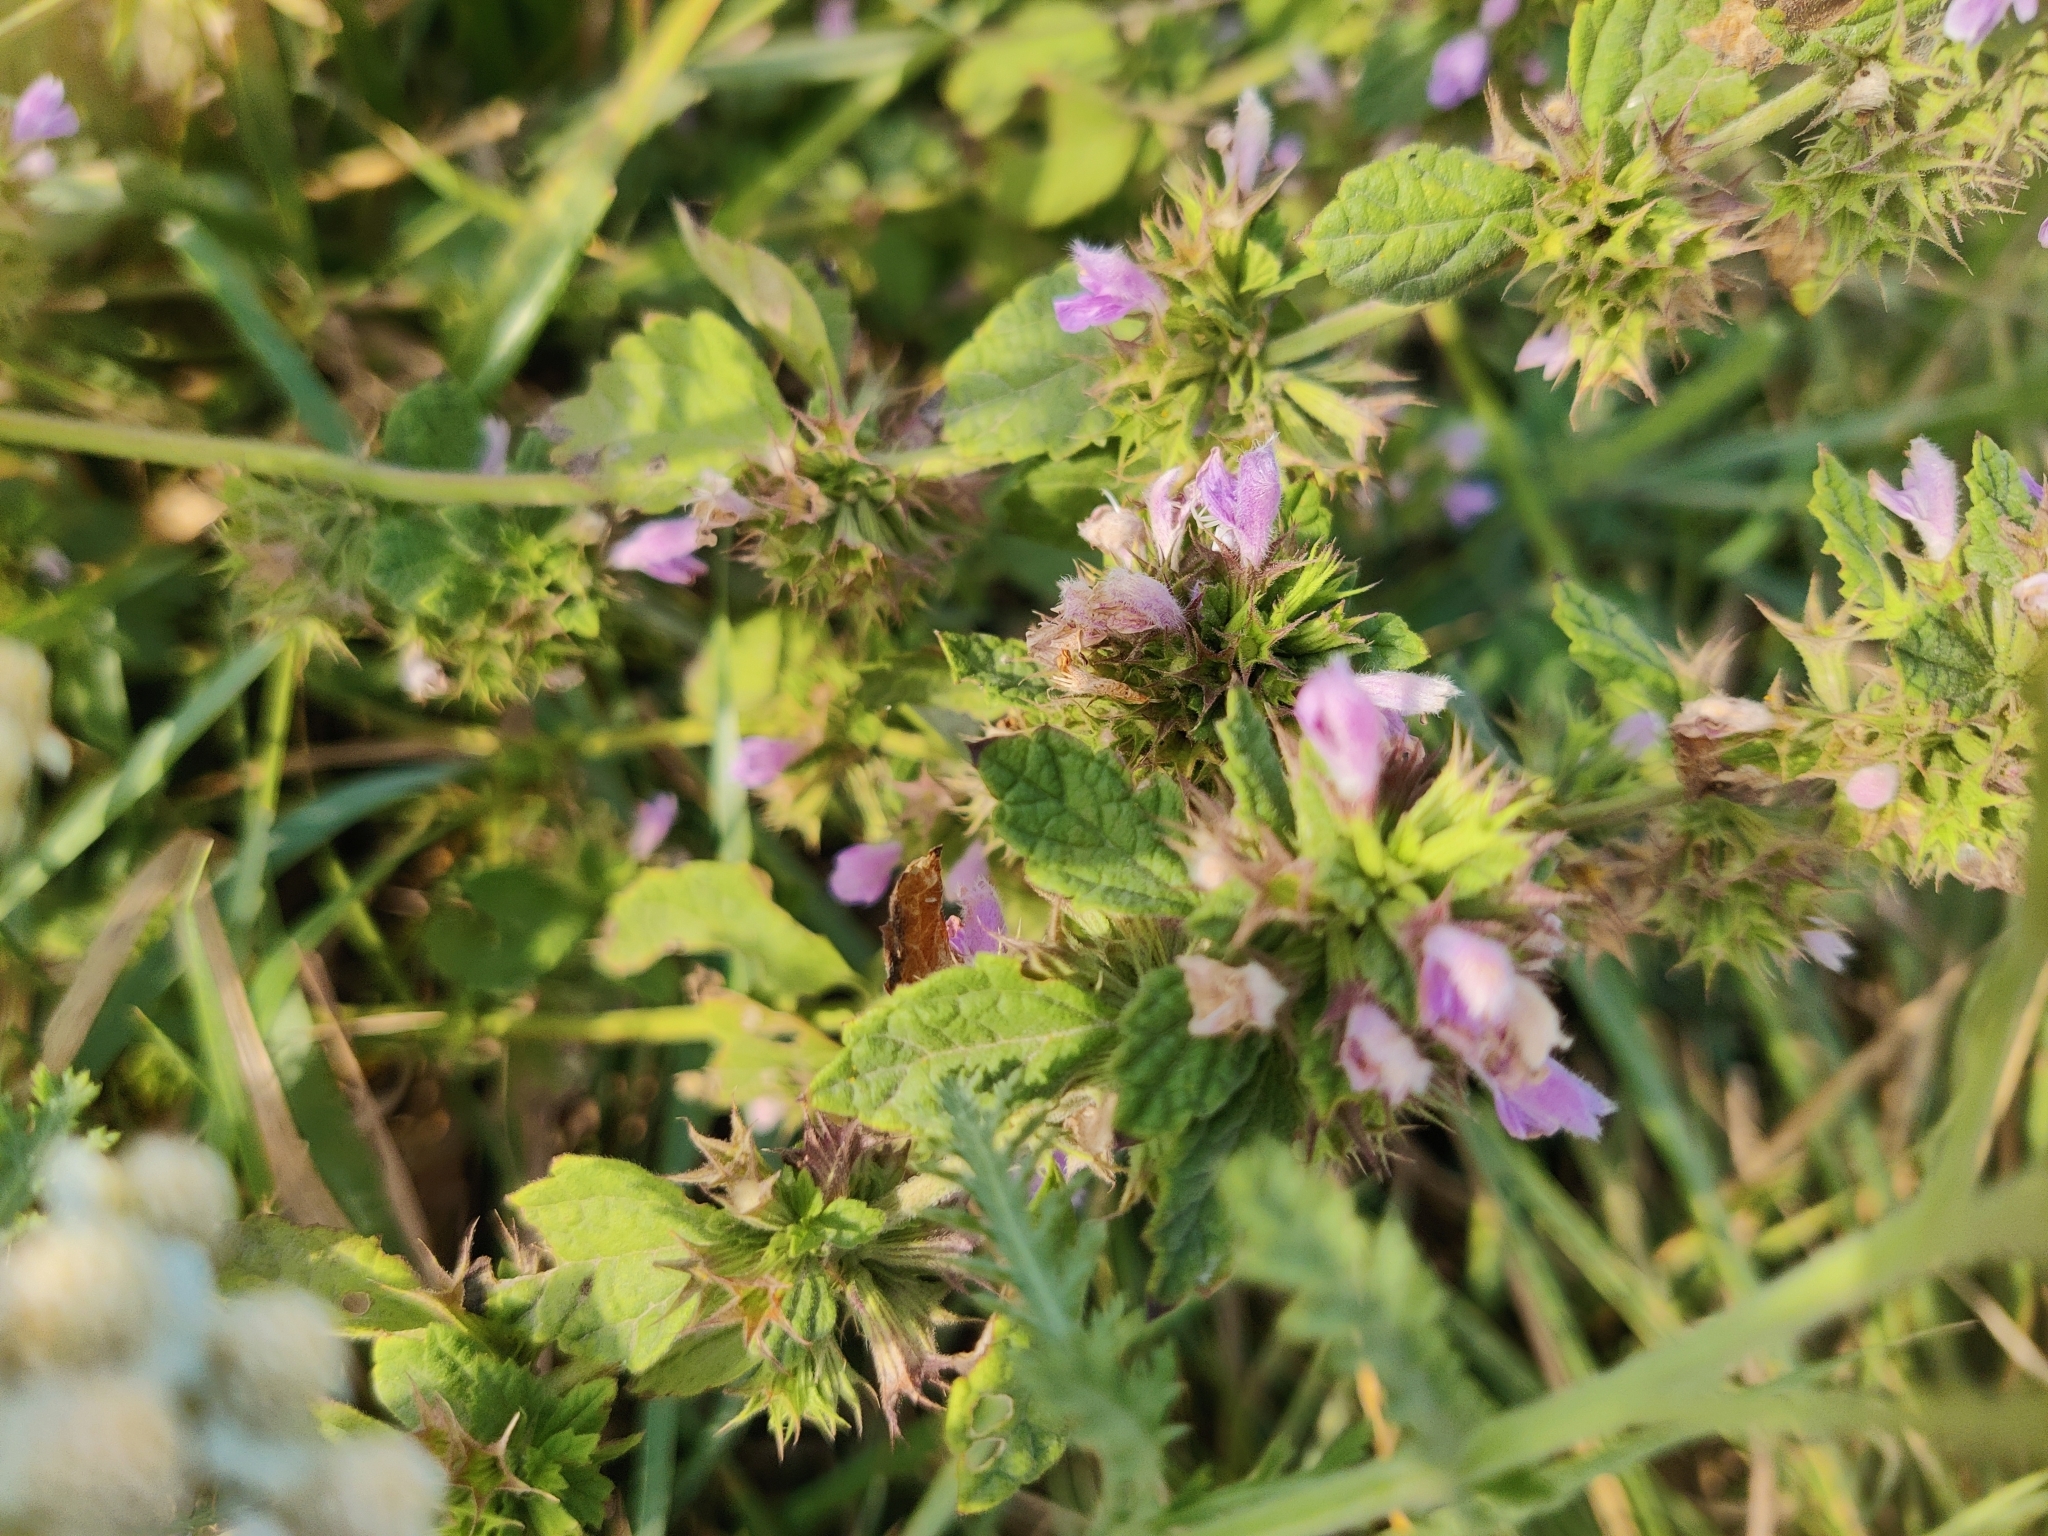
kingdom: Plantae
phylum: Tracheophyta
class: Magnoliopsida
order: Lamiales
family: Lamiaceae
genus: Ballota
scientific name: Ballota nigra
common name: Black horehound
